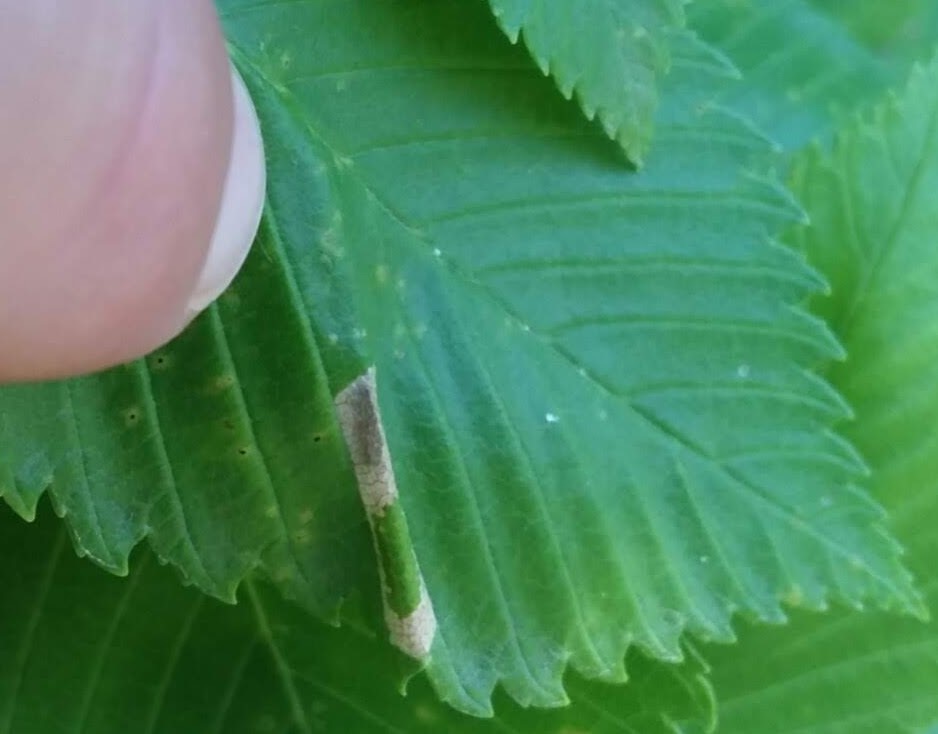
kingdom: Animalia
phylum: Arthropoda
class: Insecta
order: Lepidoptera
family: Gracillariidae
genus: Phyllonorycter
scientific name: Phyllonorycter argentinotella
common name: Golden elm leafminer
